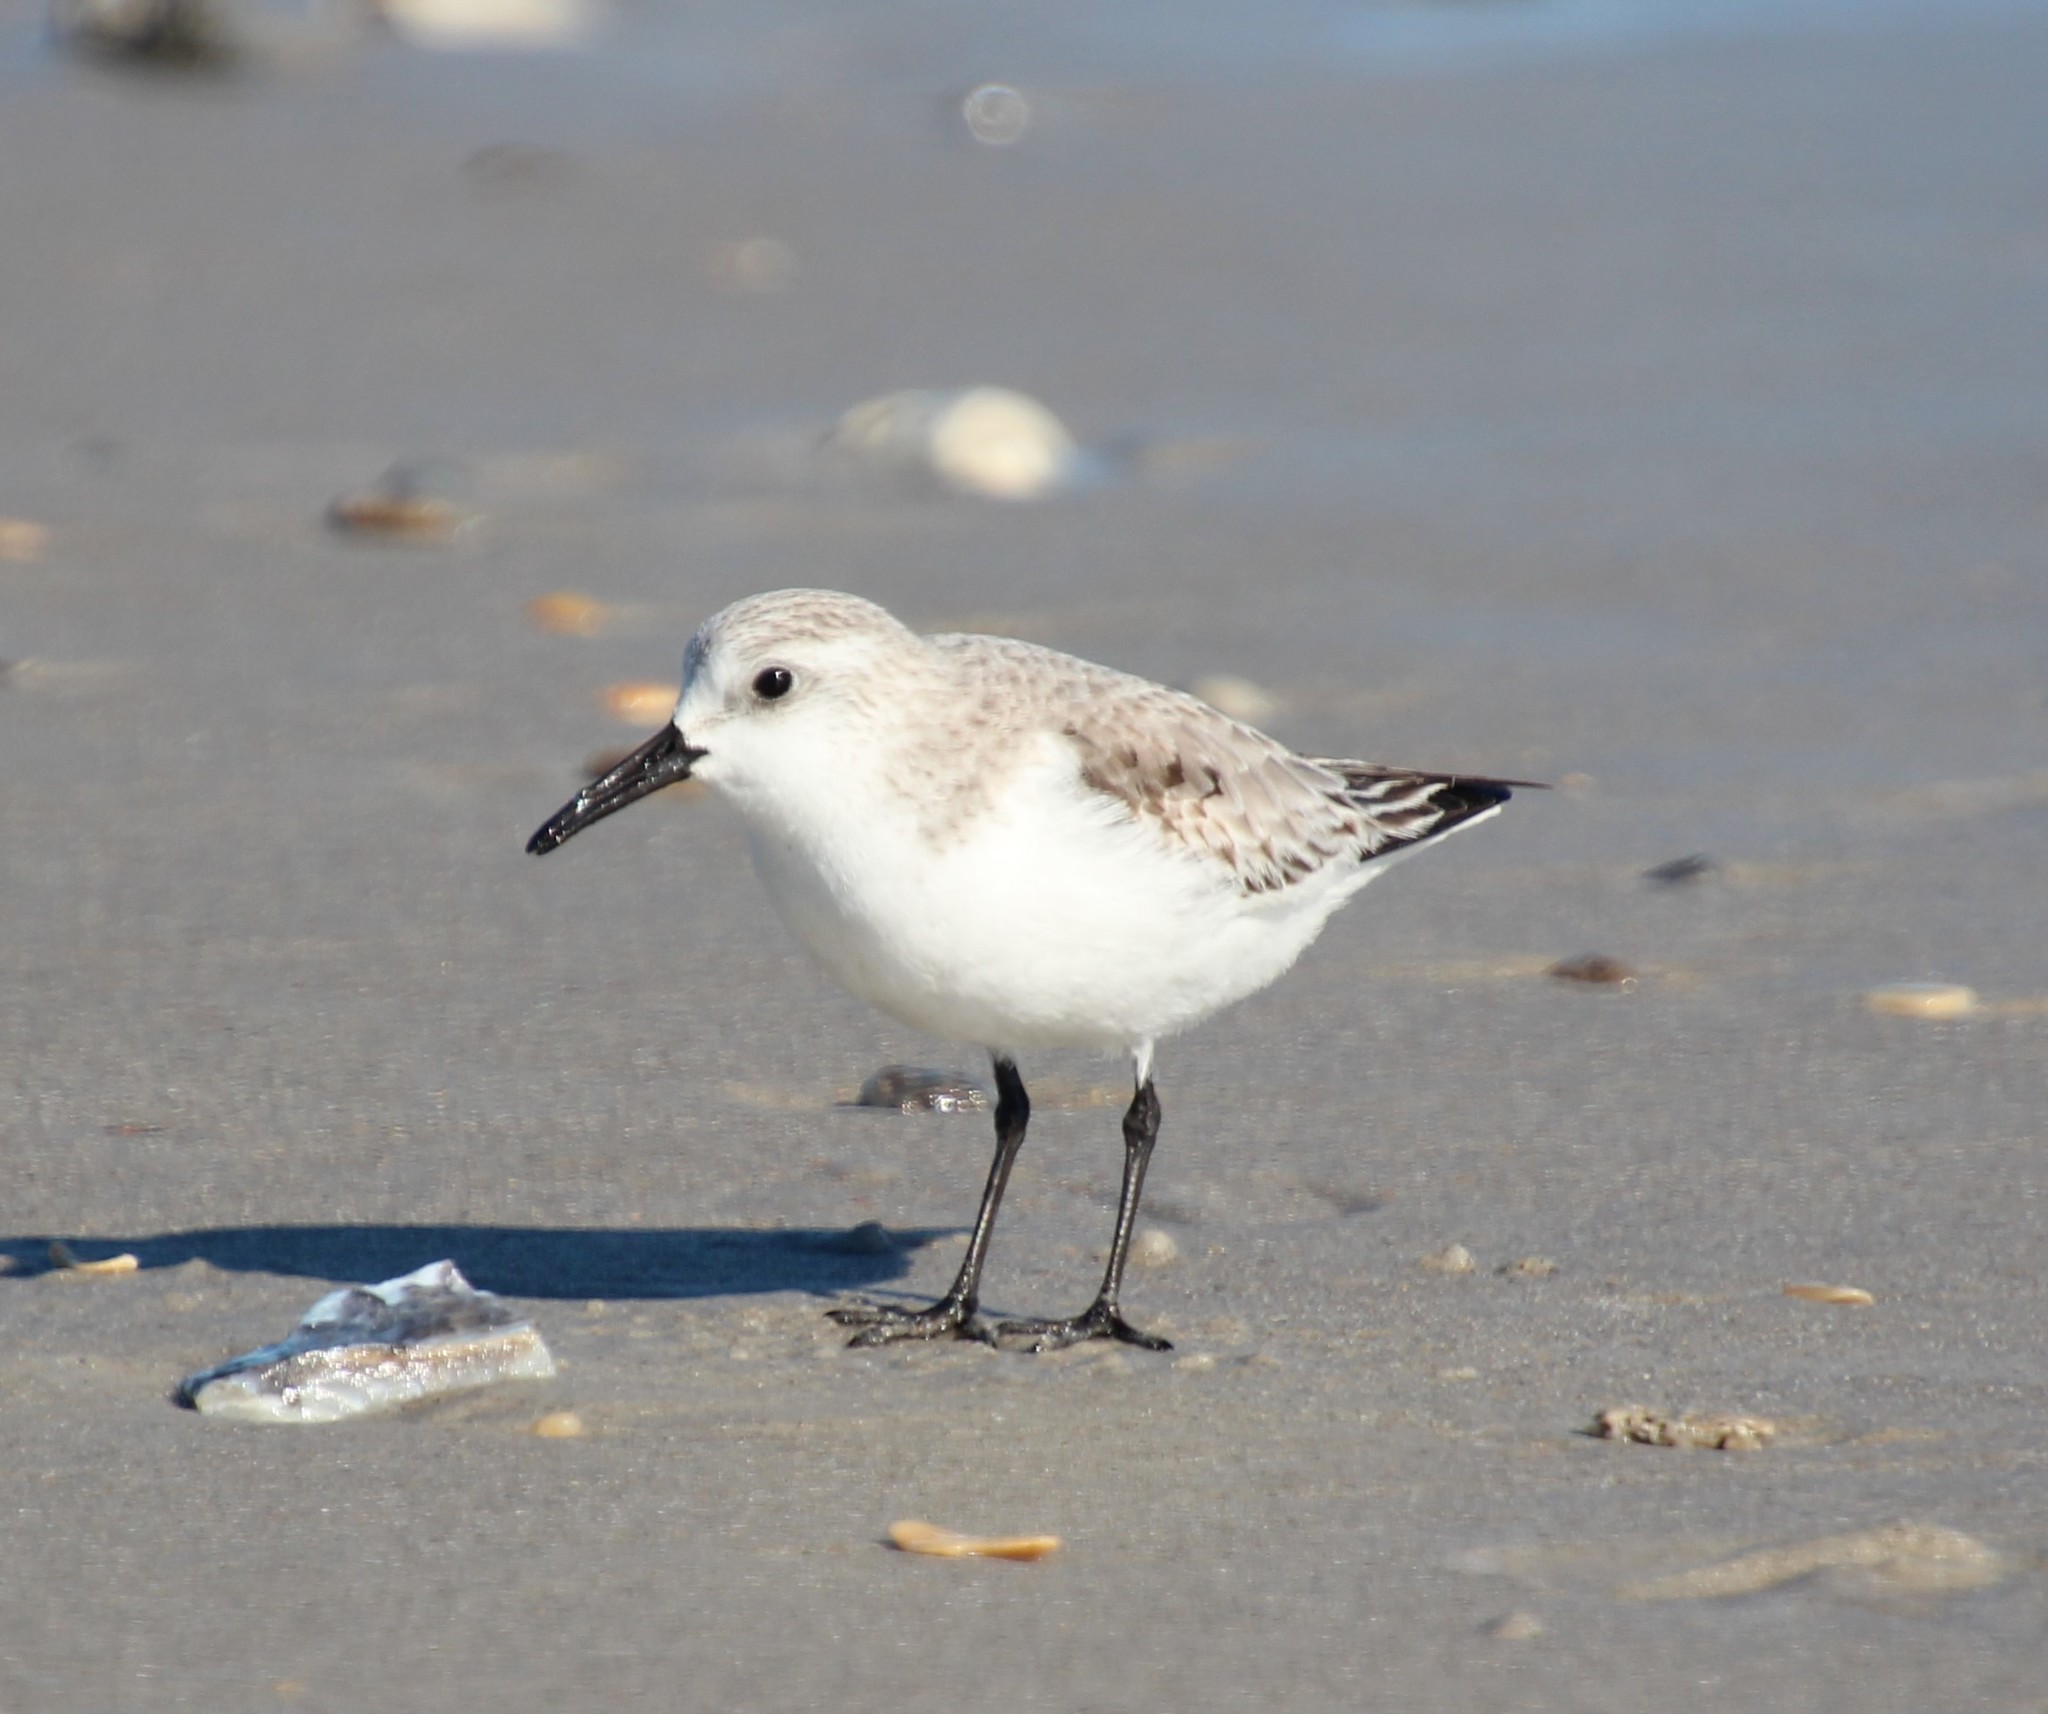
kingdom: Animalia
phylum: Chordata
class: Aves
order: Charadriiformes
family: Scolopacidae
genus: Calidris
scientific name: Calidris alba
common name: Sanderling
